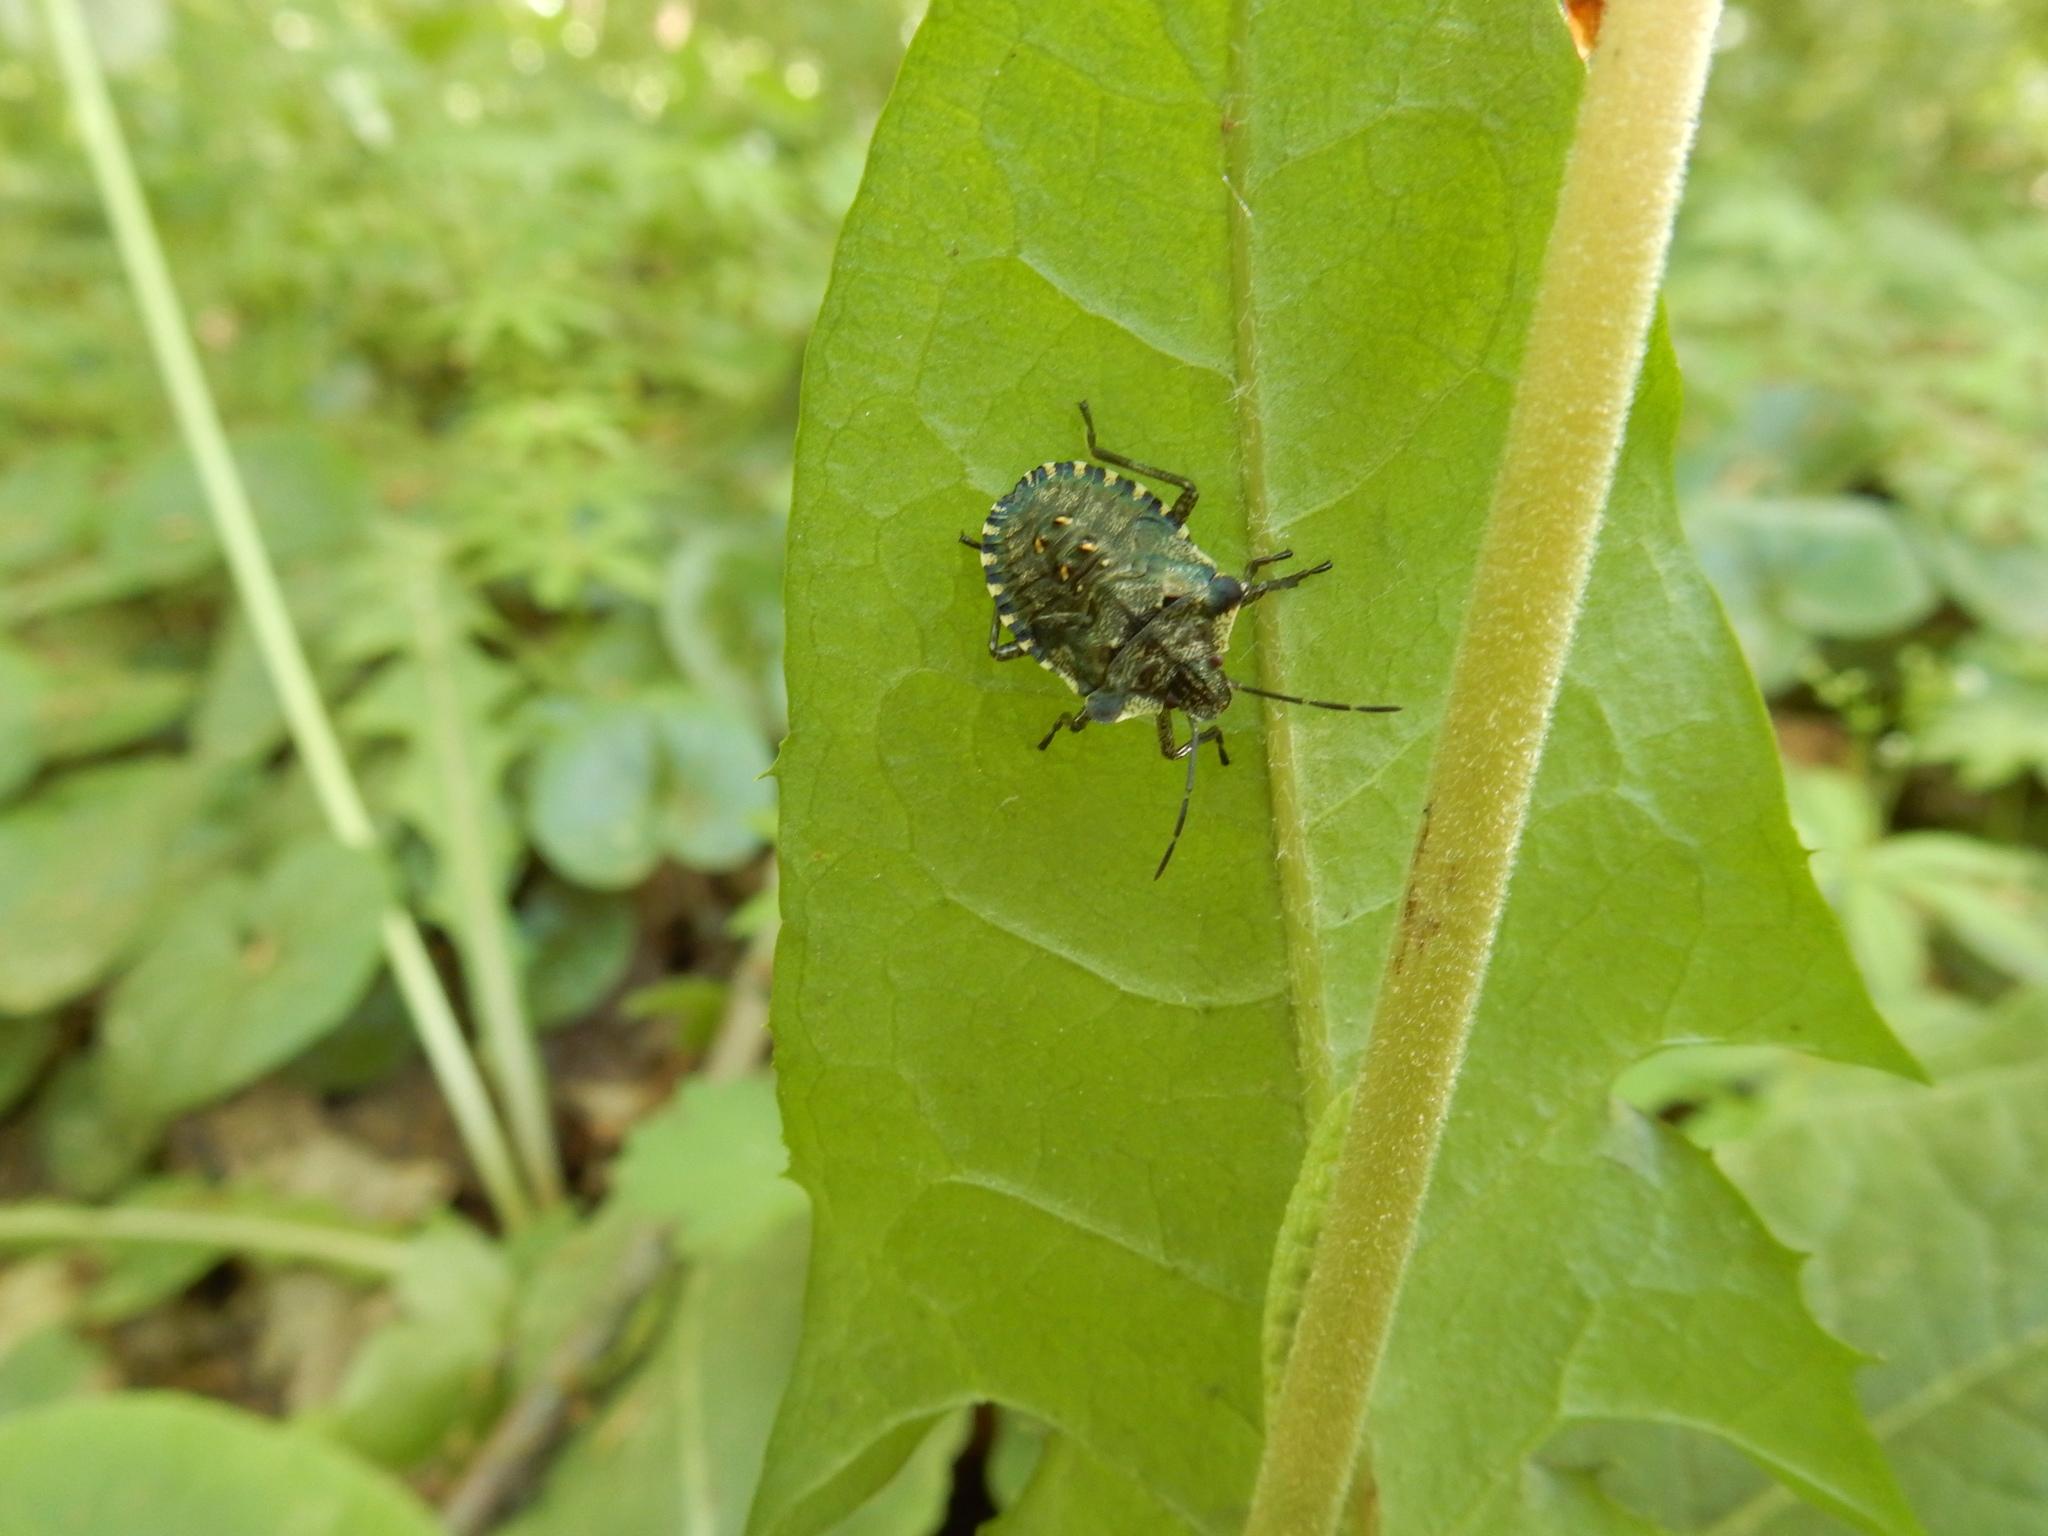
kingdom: Animalia
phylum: Arthropoda
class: Insecta
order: Hemiptera
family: Pentatomidae
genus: Pentatoma
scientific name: Pentatoma rufipes
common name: Forest bug
